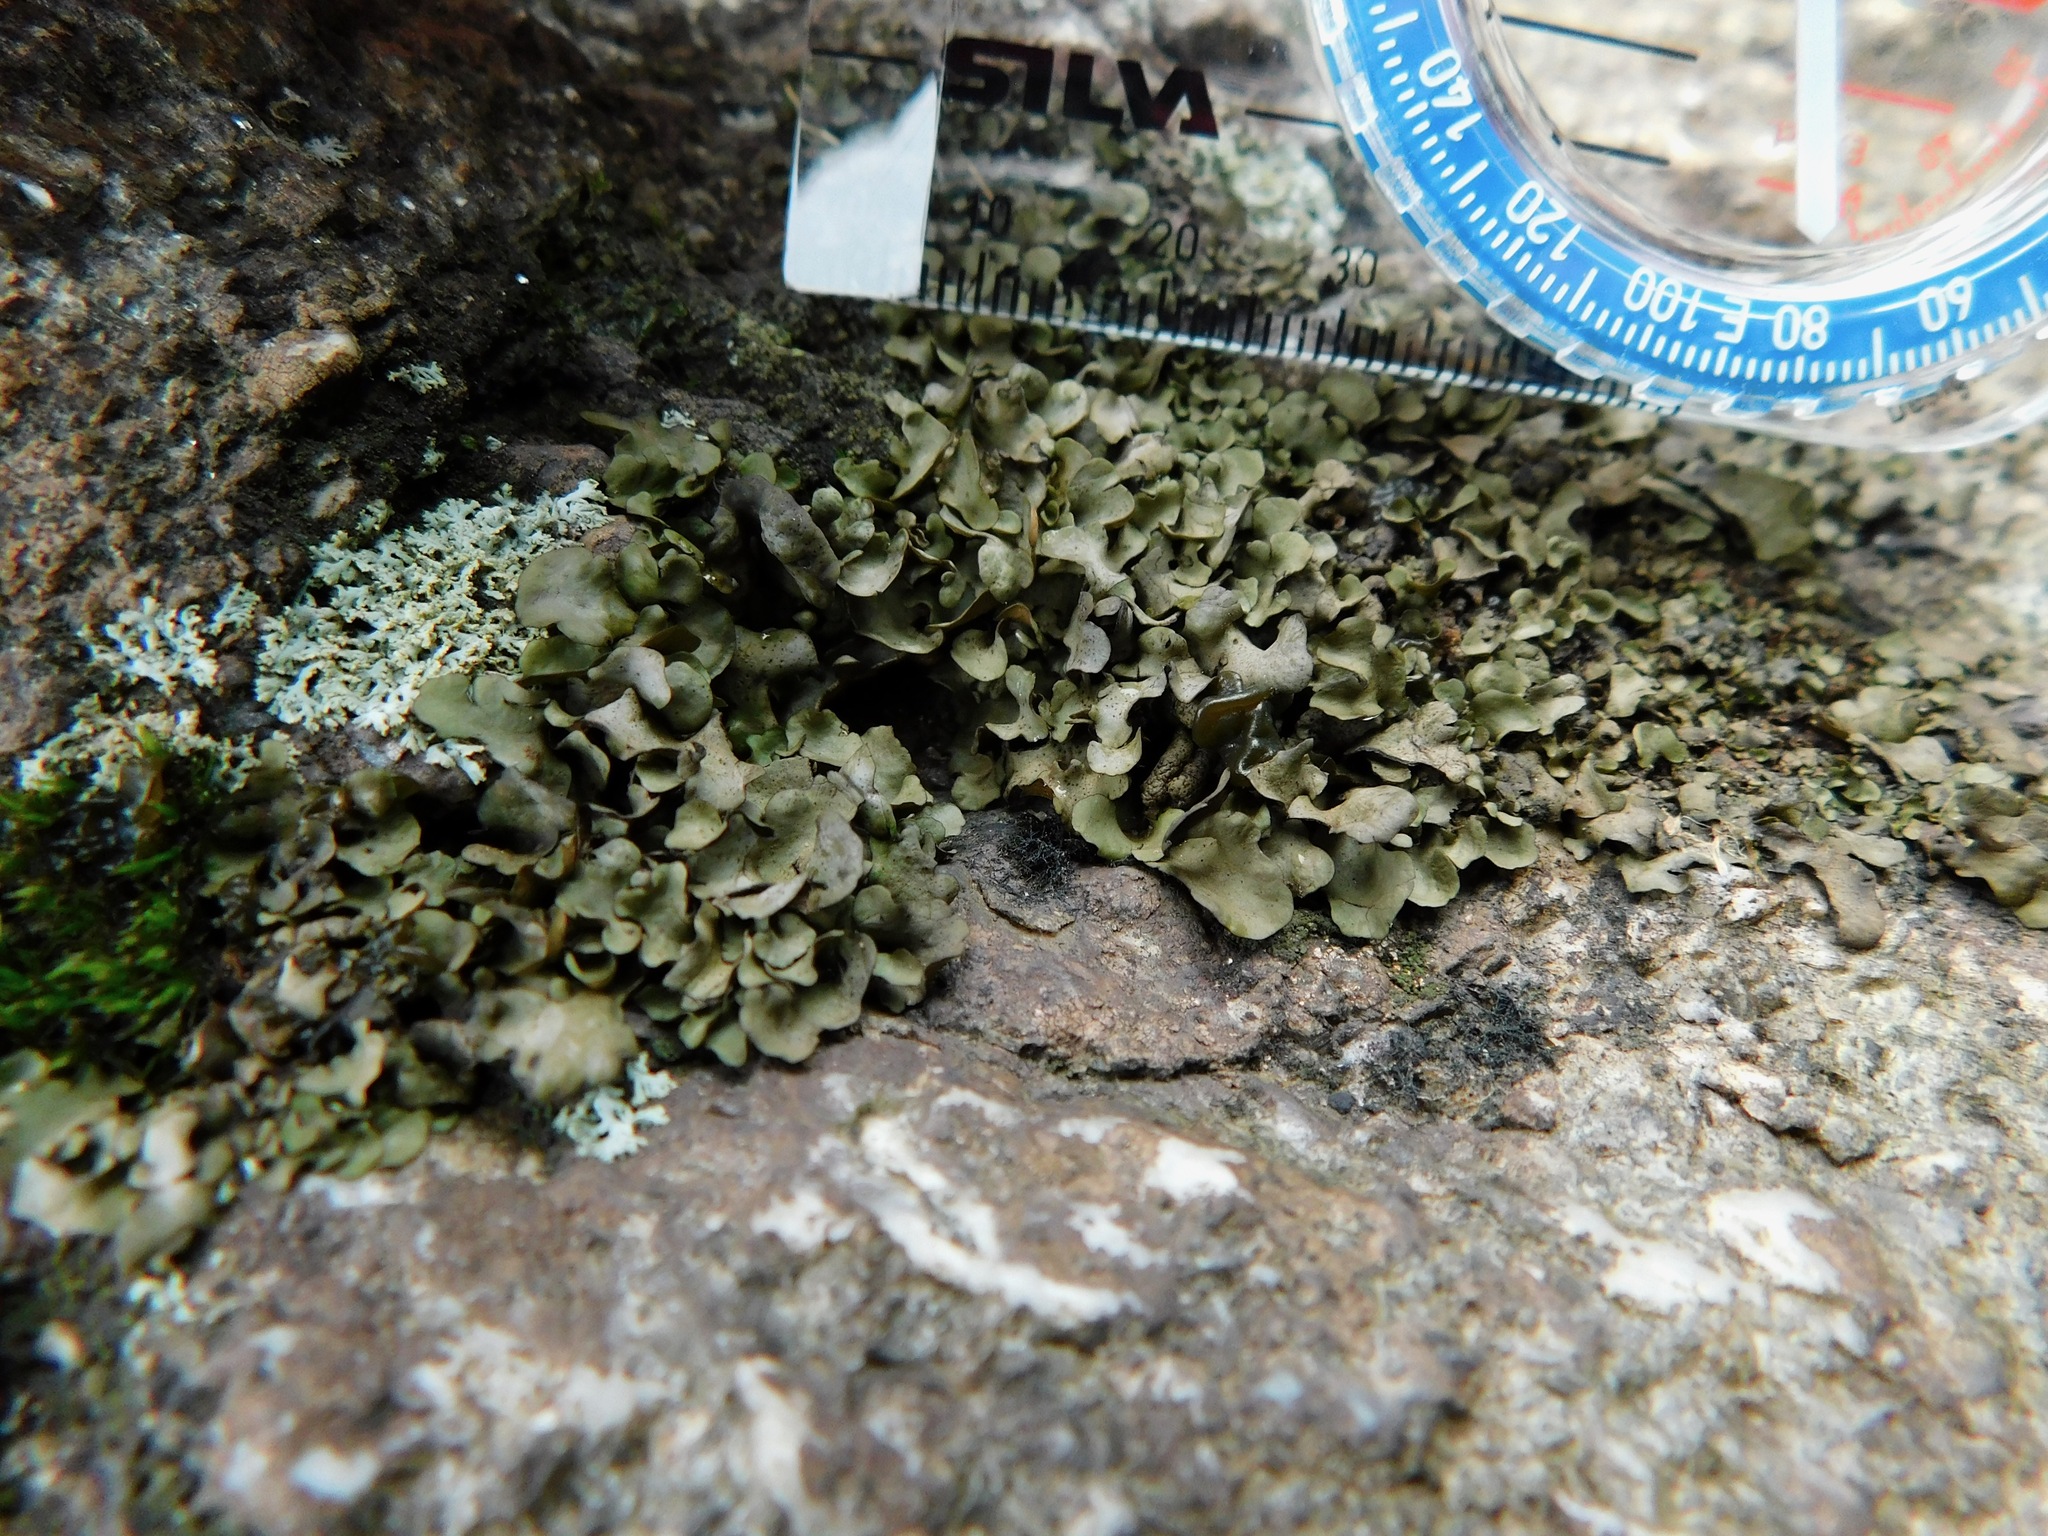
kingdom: Fungi
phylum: Ascomycota
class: Eurotiomycetes
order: Verrucariales
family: Verrucariaceae
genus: Dermatocarpon
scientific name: Dermatocarpon luridum
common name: Brook stippleback lichen
